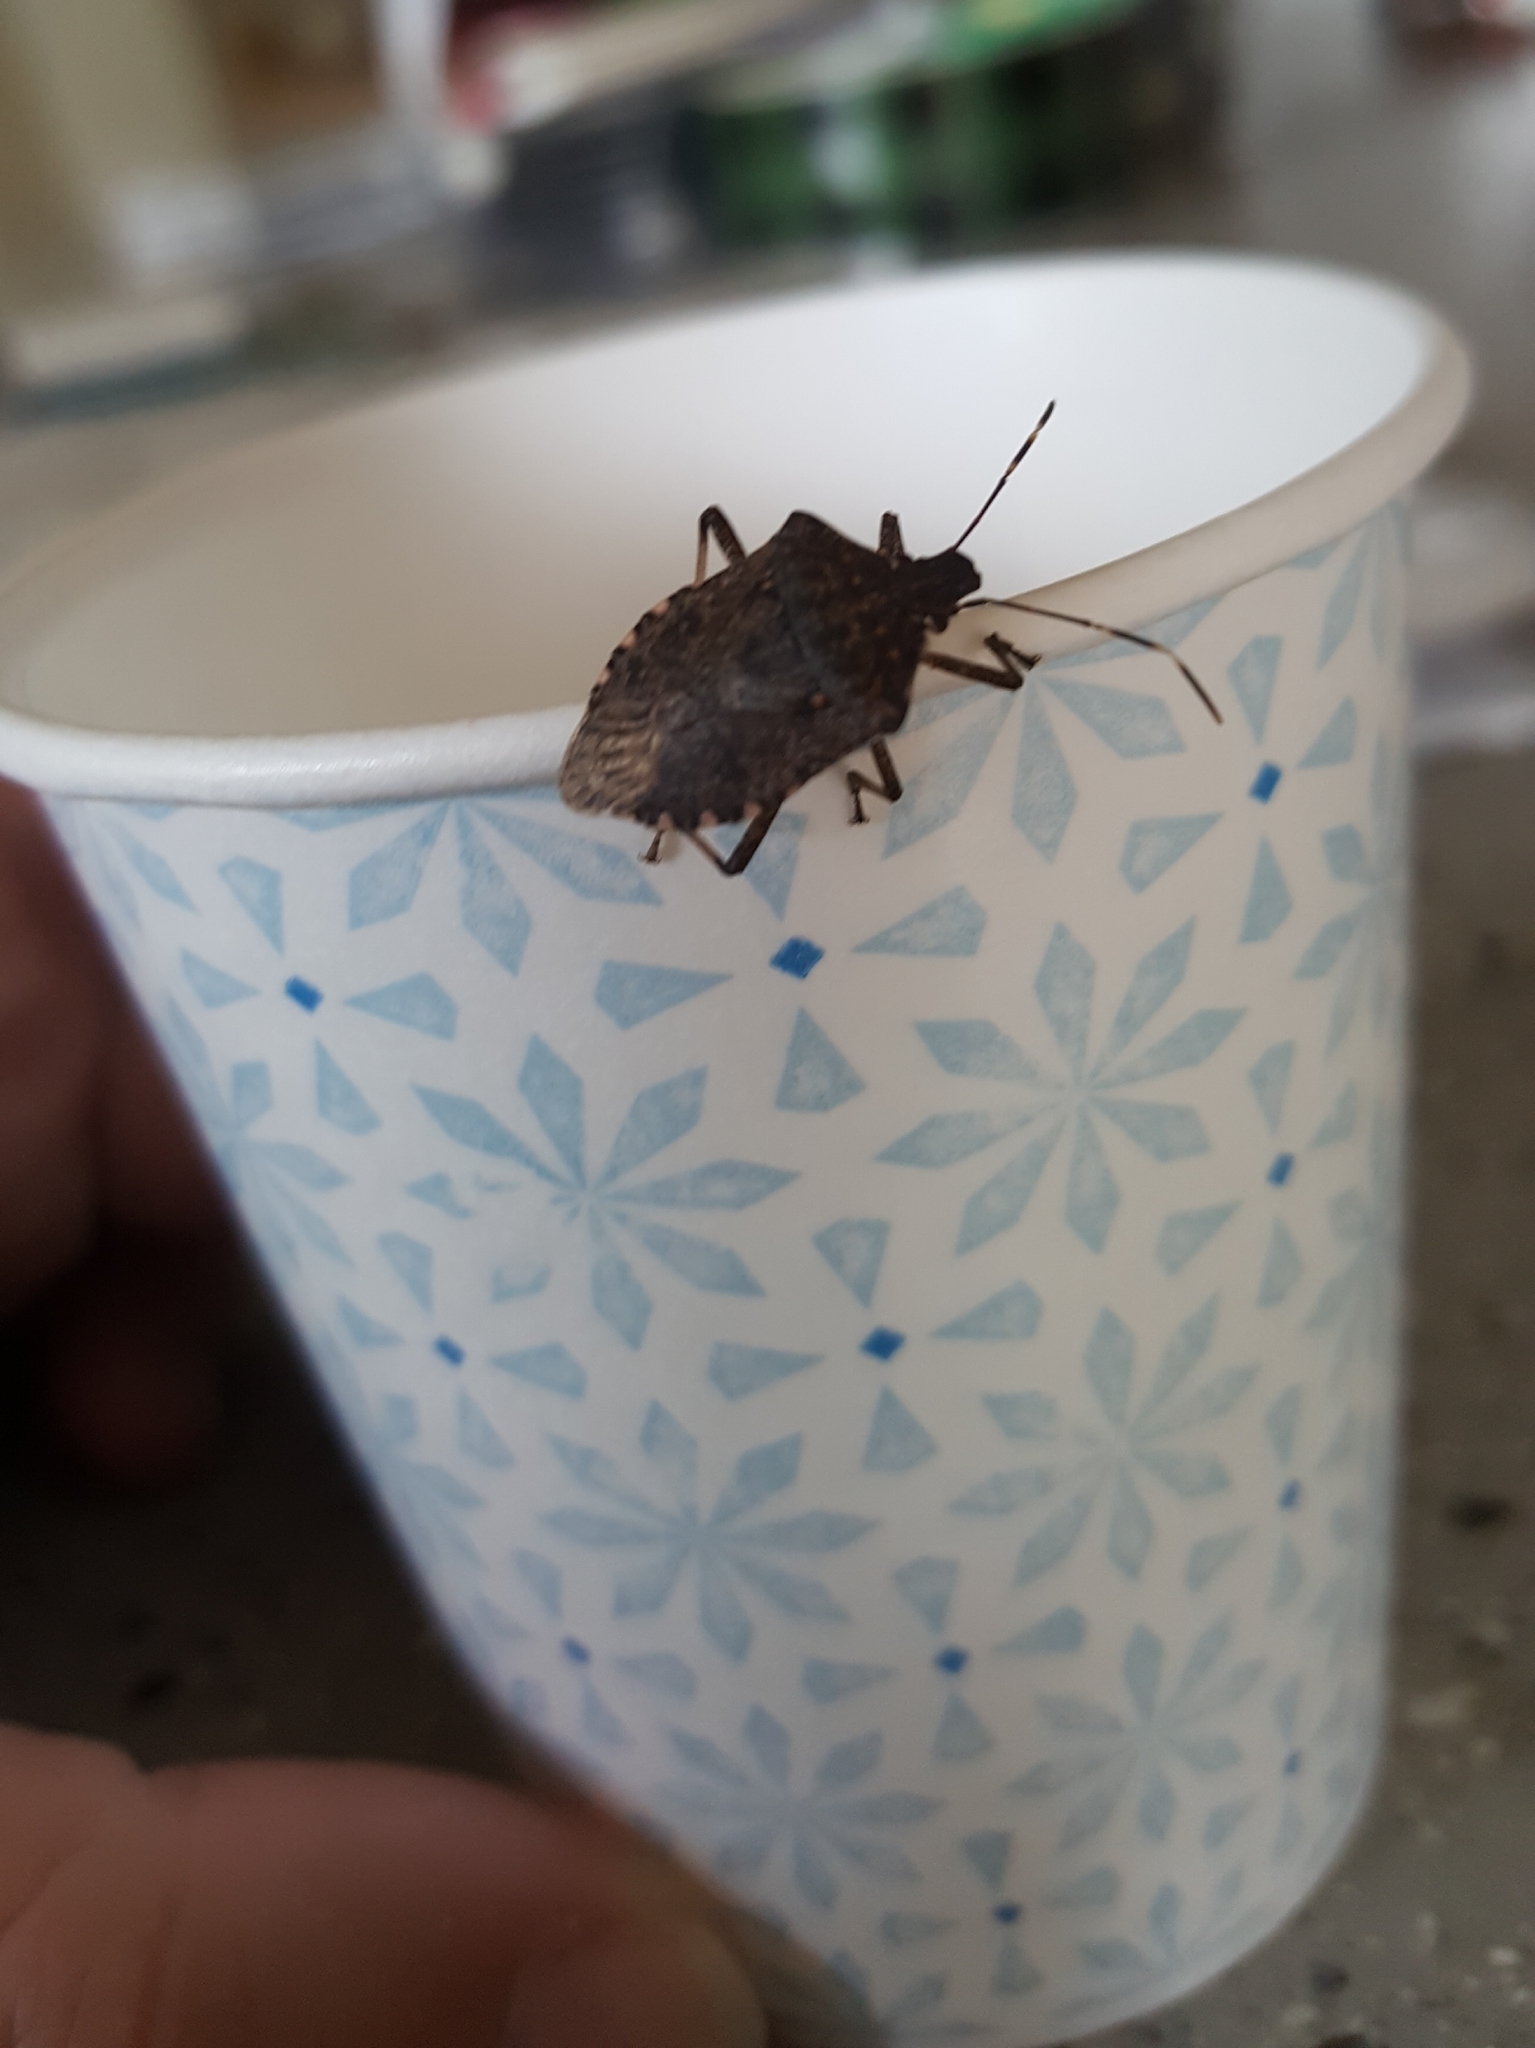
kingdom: Animalia
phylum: Arthropoda
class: Insecta
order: Hemiptera
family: Pentatomidae
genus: Halyomorpha
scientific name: Halyomorpha halys
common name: Brown marmorated stink bug
